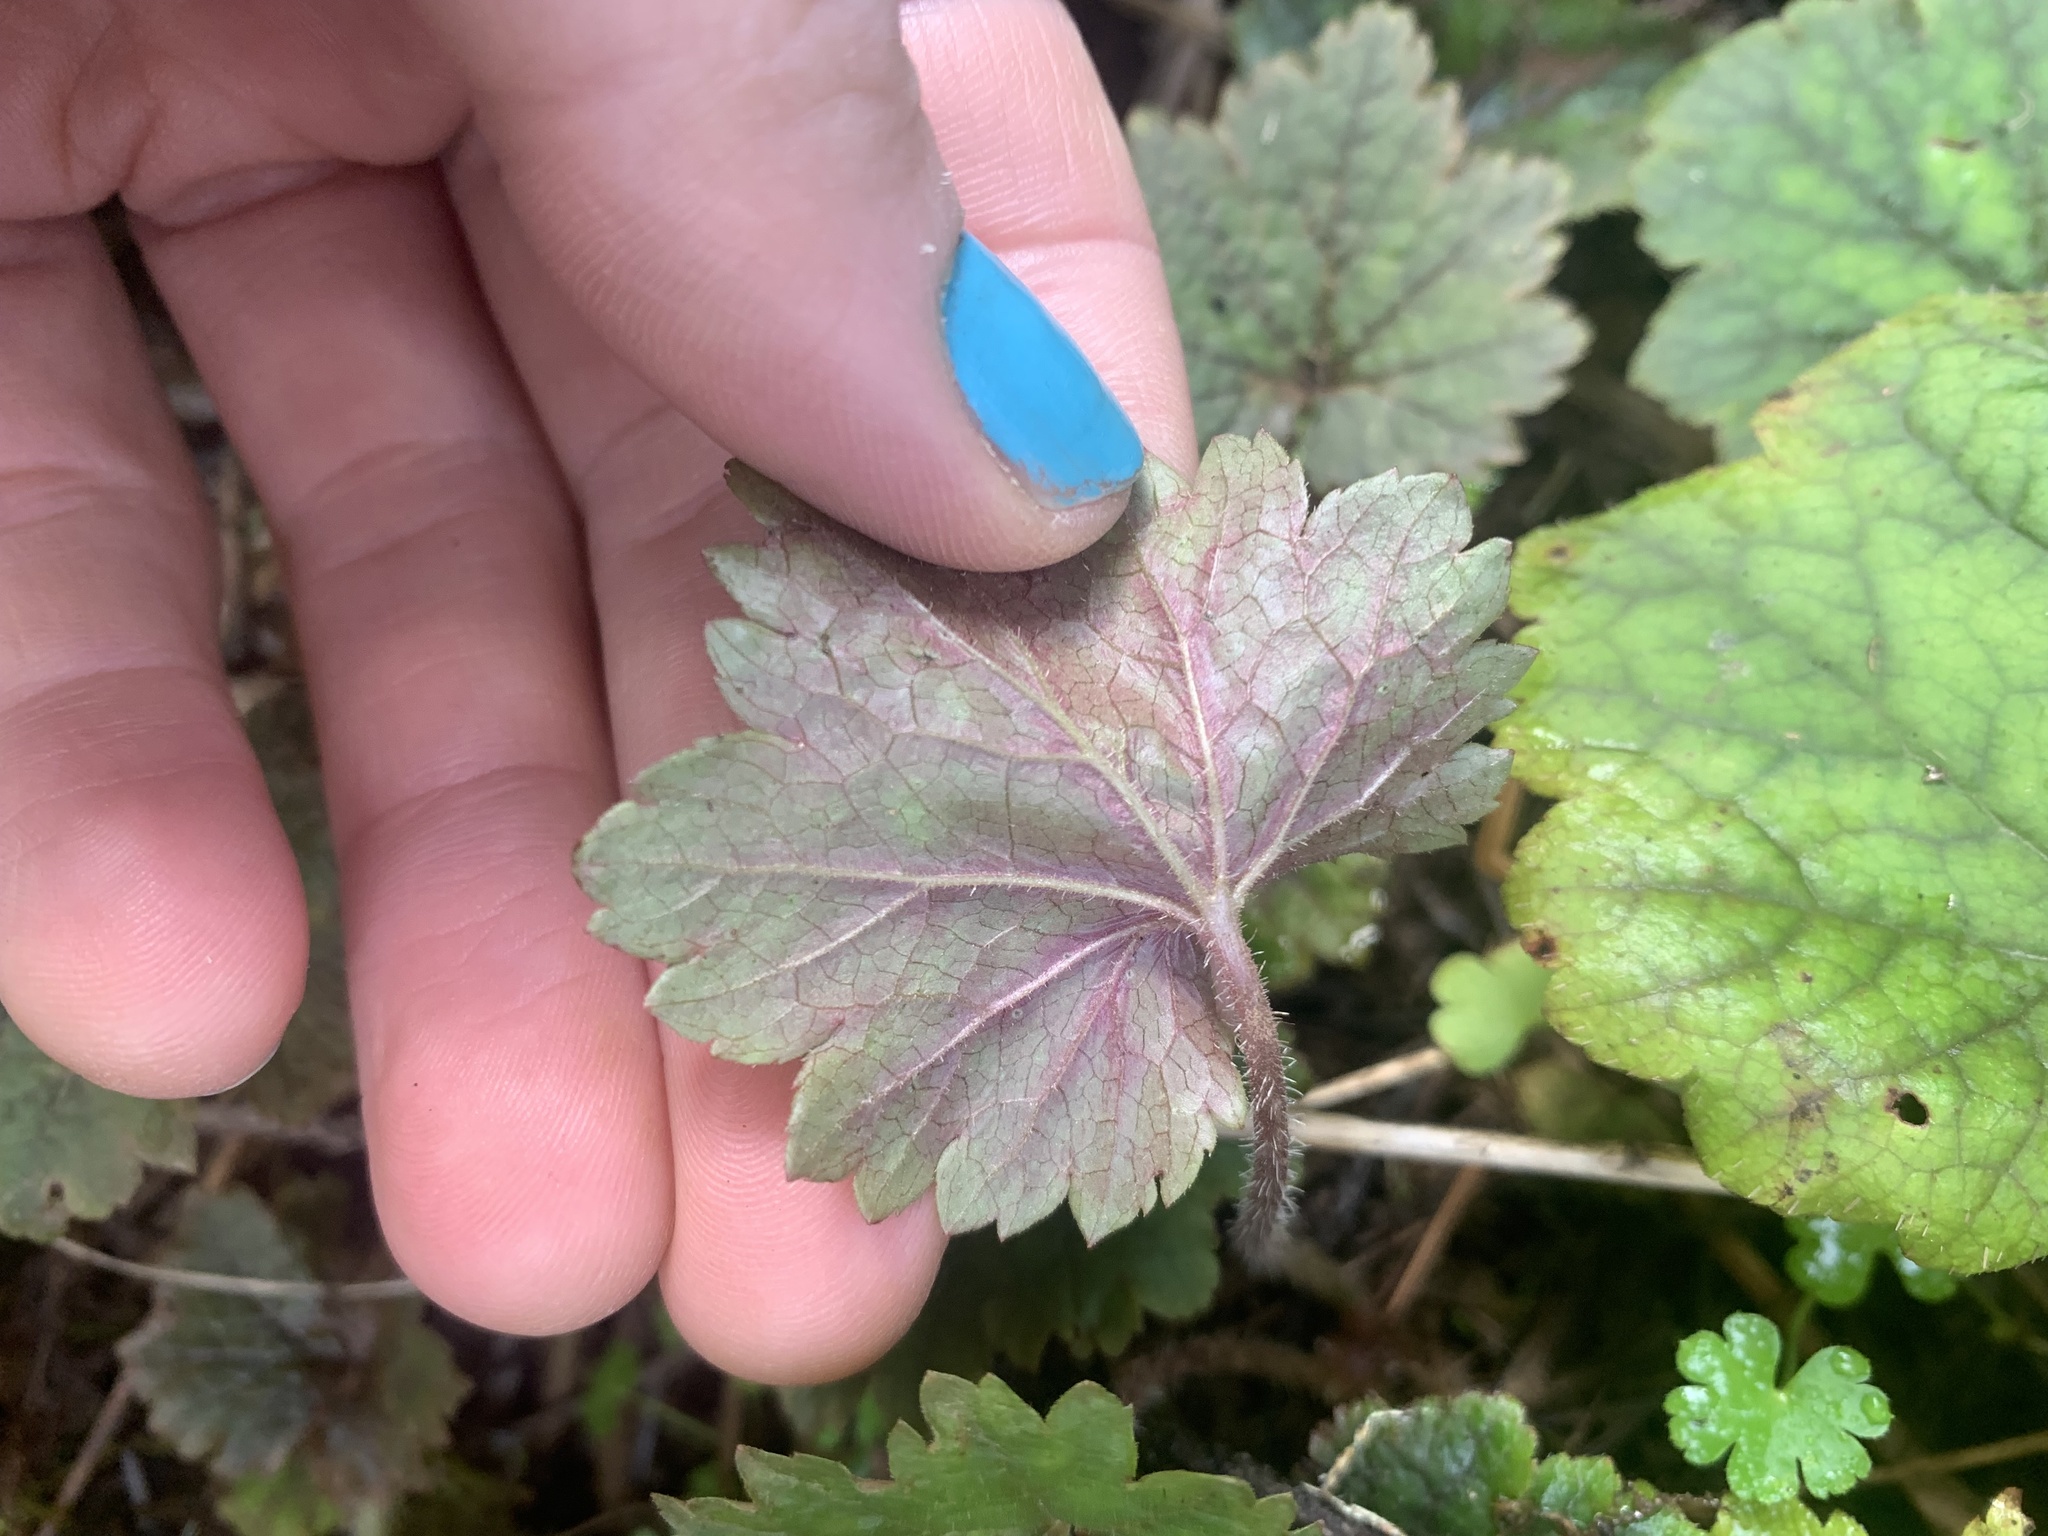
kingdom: Plantae
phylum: Tracheophyta
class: Magnoliopsida
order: Saxifragales
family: Saxifragaceae
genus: Tellima
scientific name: Tellima grandiflora
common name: Fringecups
